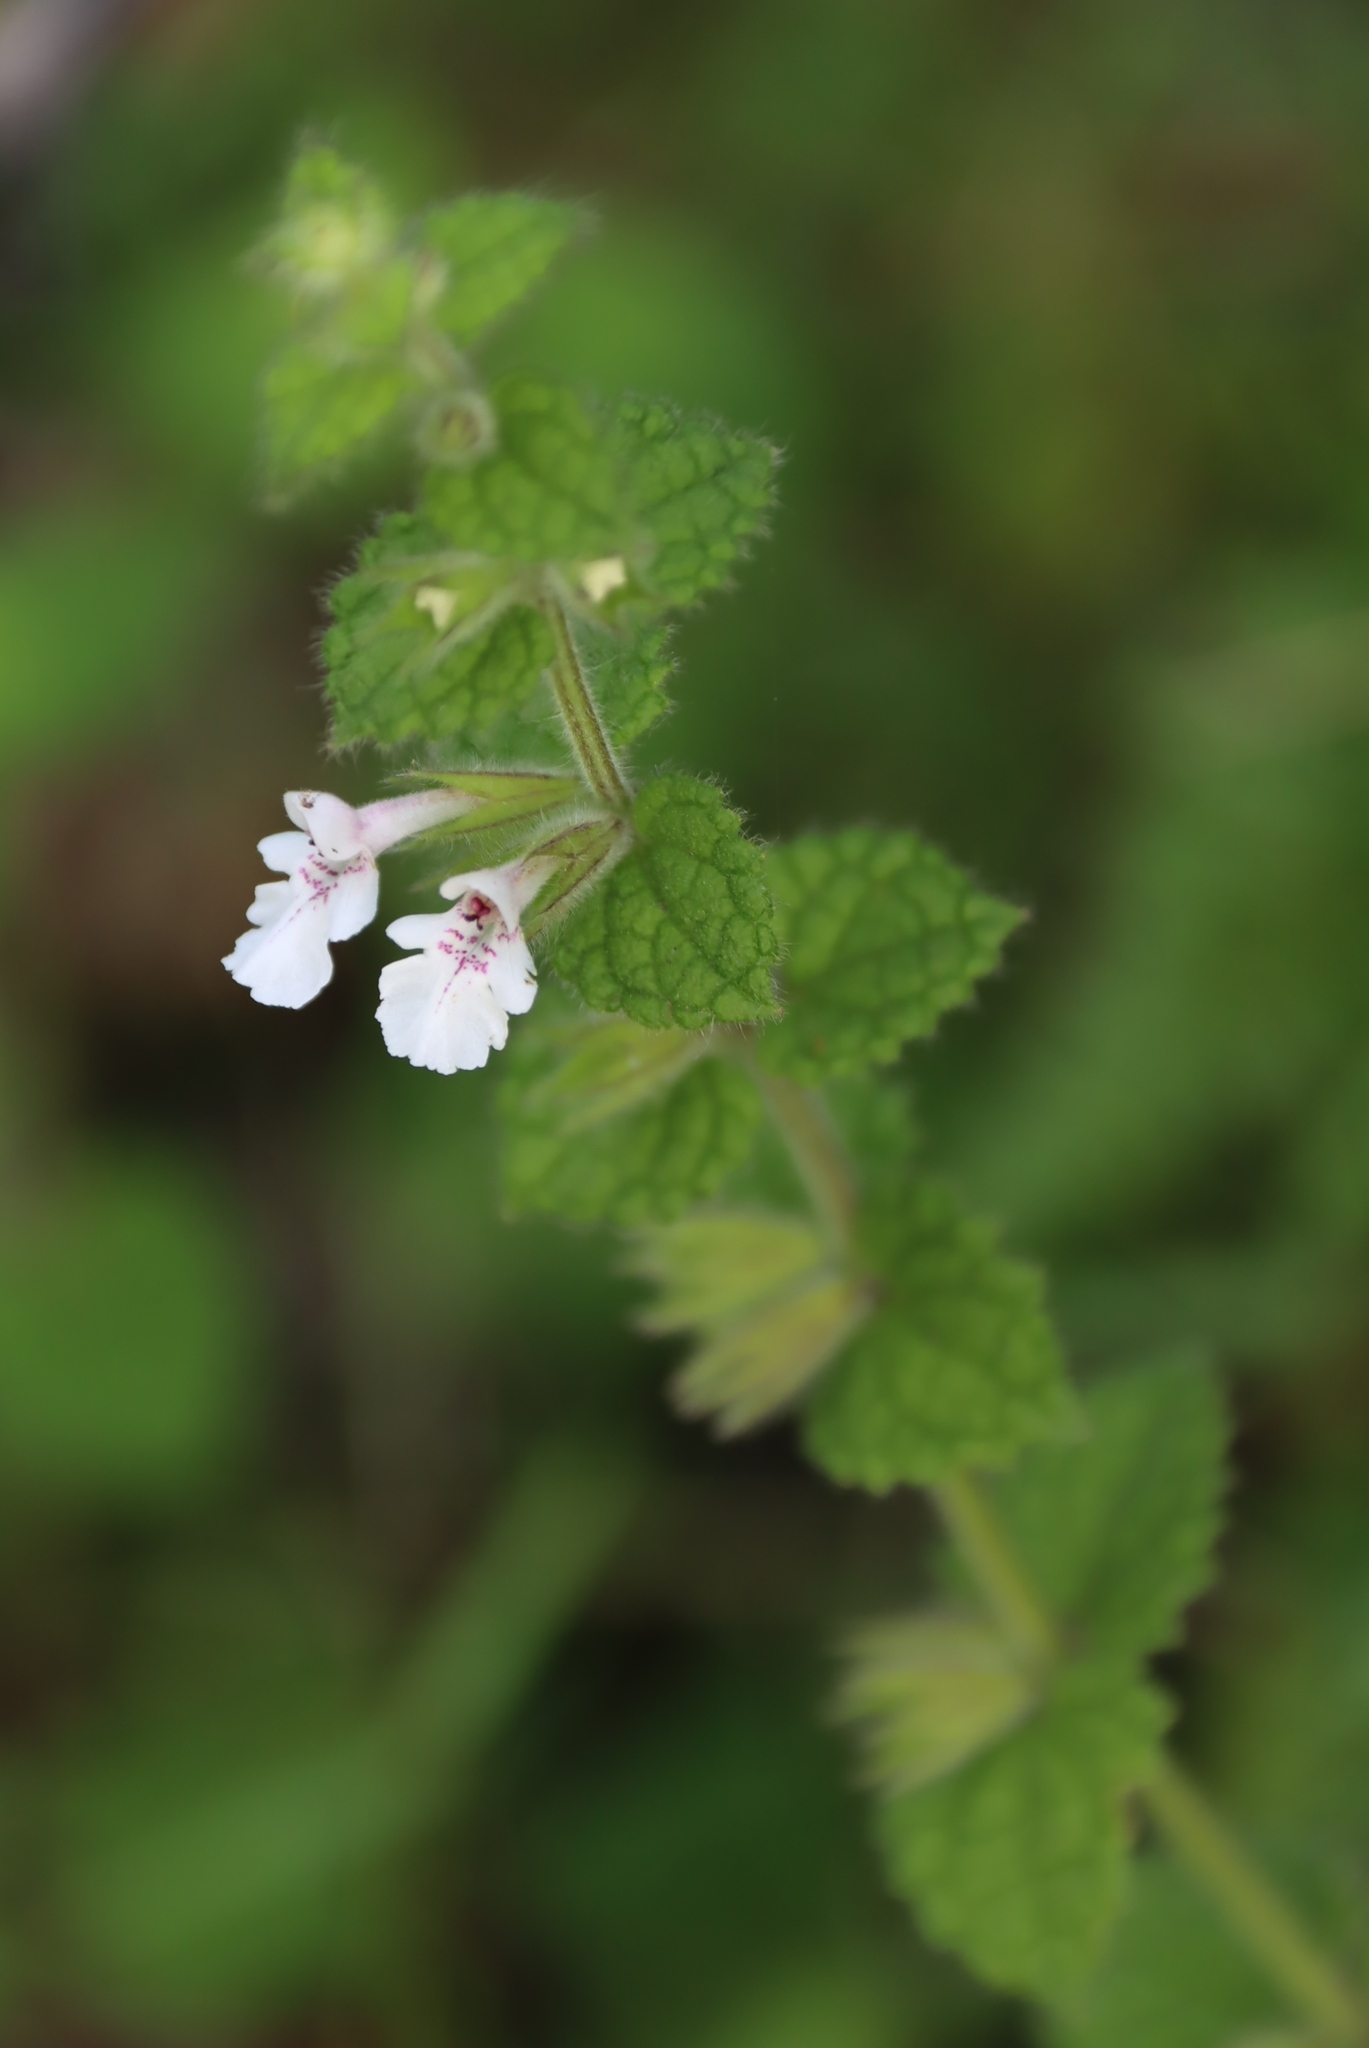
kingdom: Plantae
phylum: Tracheophyta
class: Magnoliopsida
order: Lamiales
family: Lamiaceae
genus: Stachys
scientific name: Stachys natalensis
